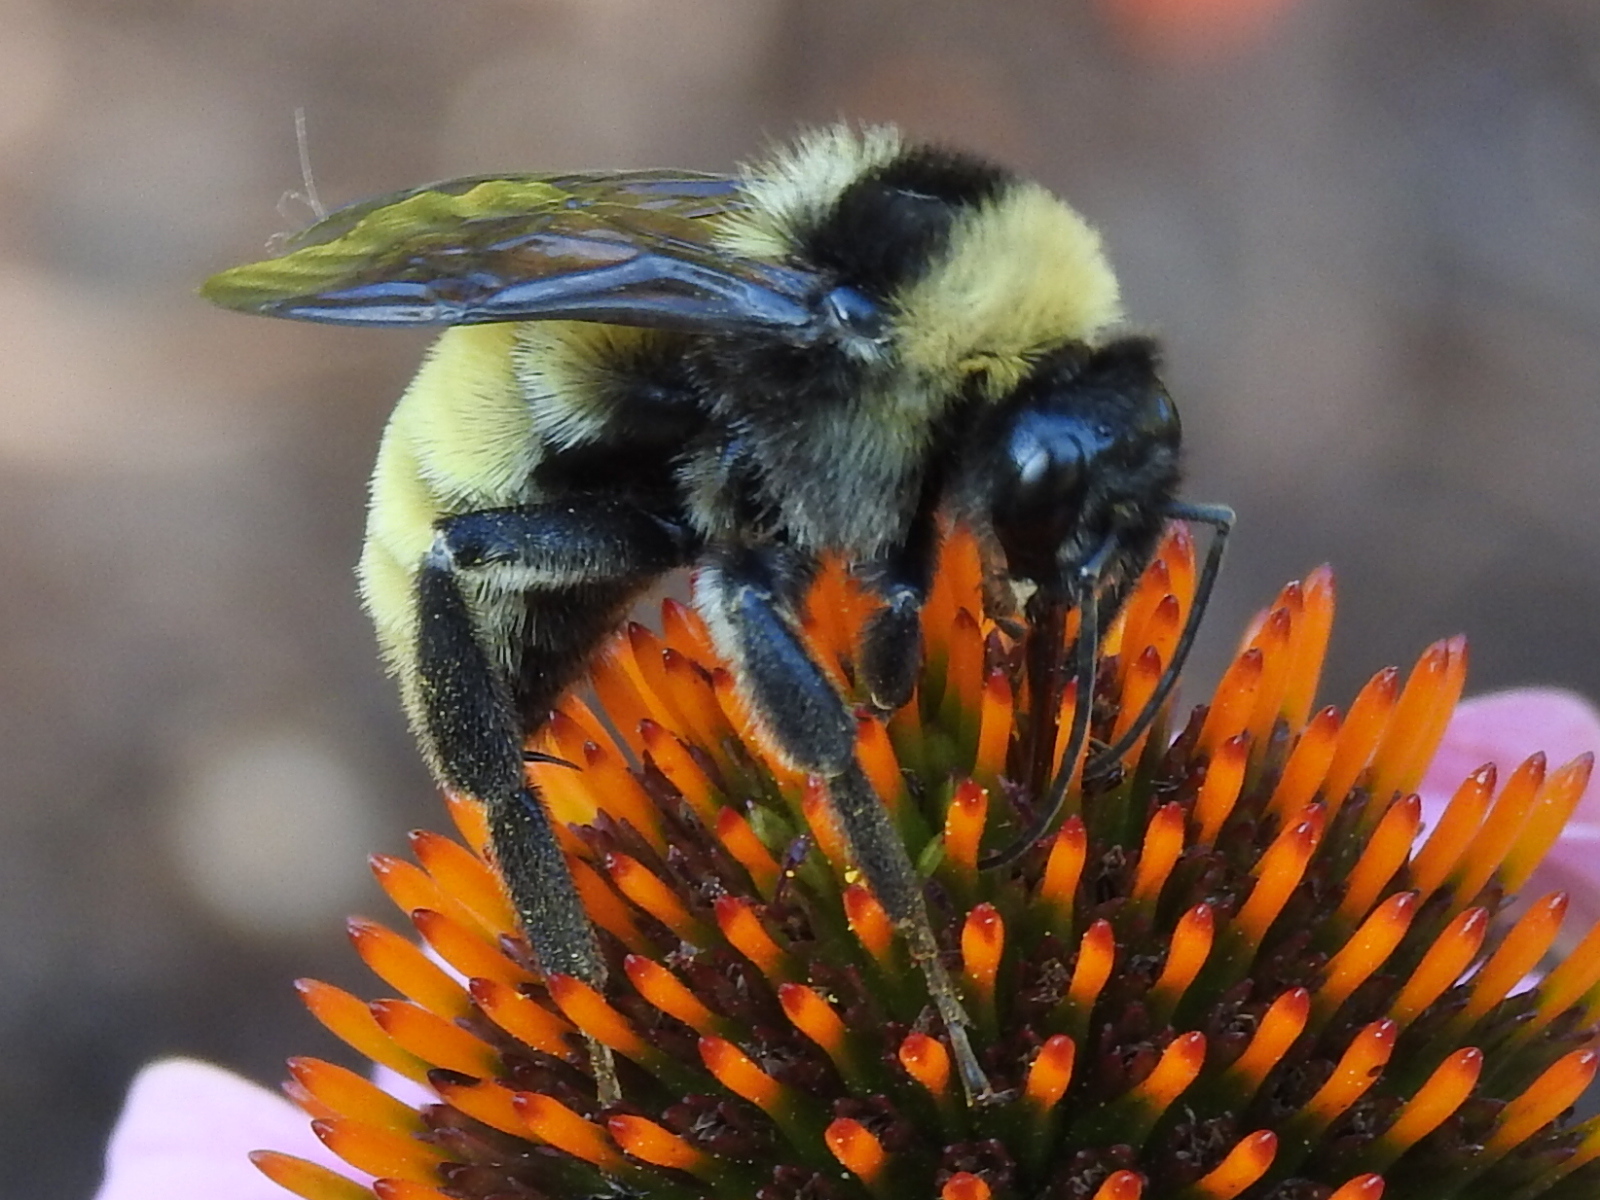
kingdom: Animalia
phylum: Arthropoda
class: Insecta
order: Hymenoptera
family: Apidae
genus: Bombus
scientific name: Bombus pensylvanicus
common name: Bumble bee
